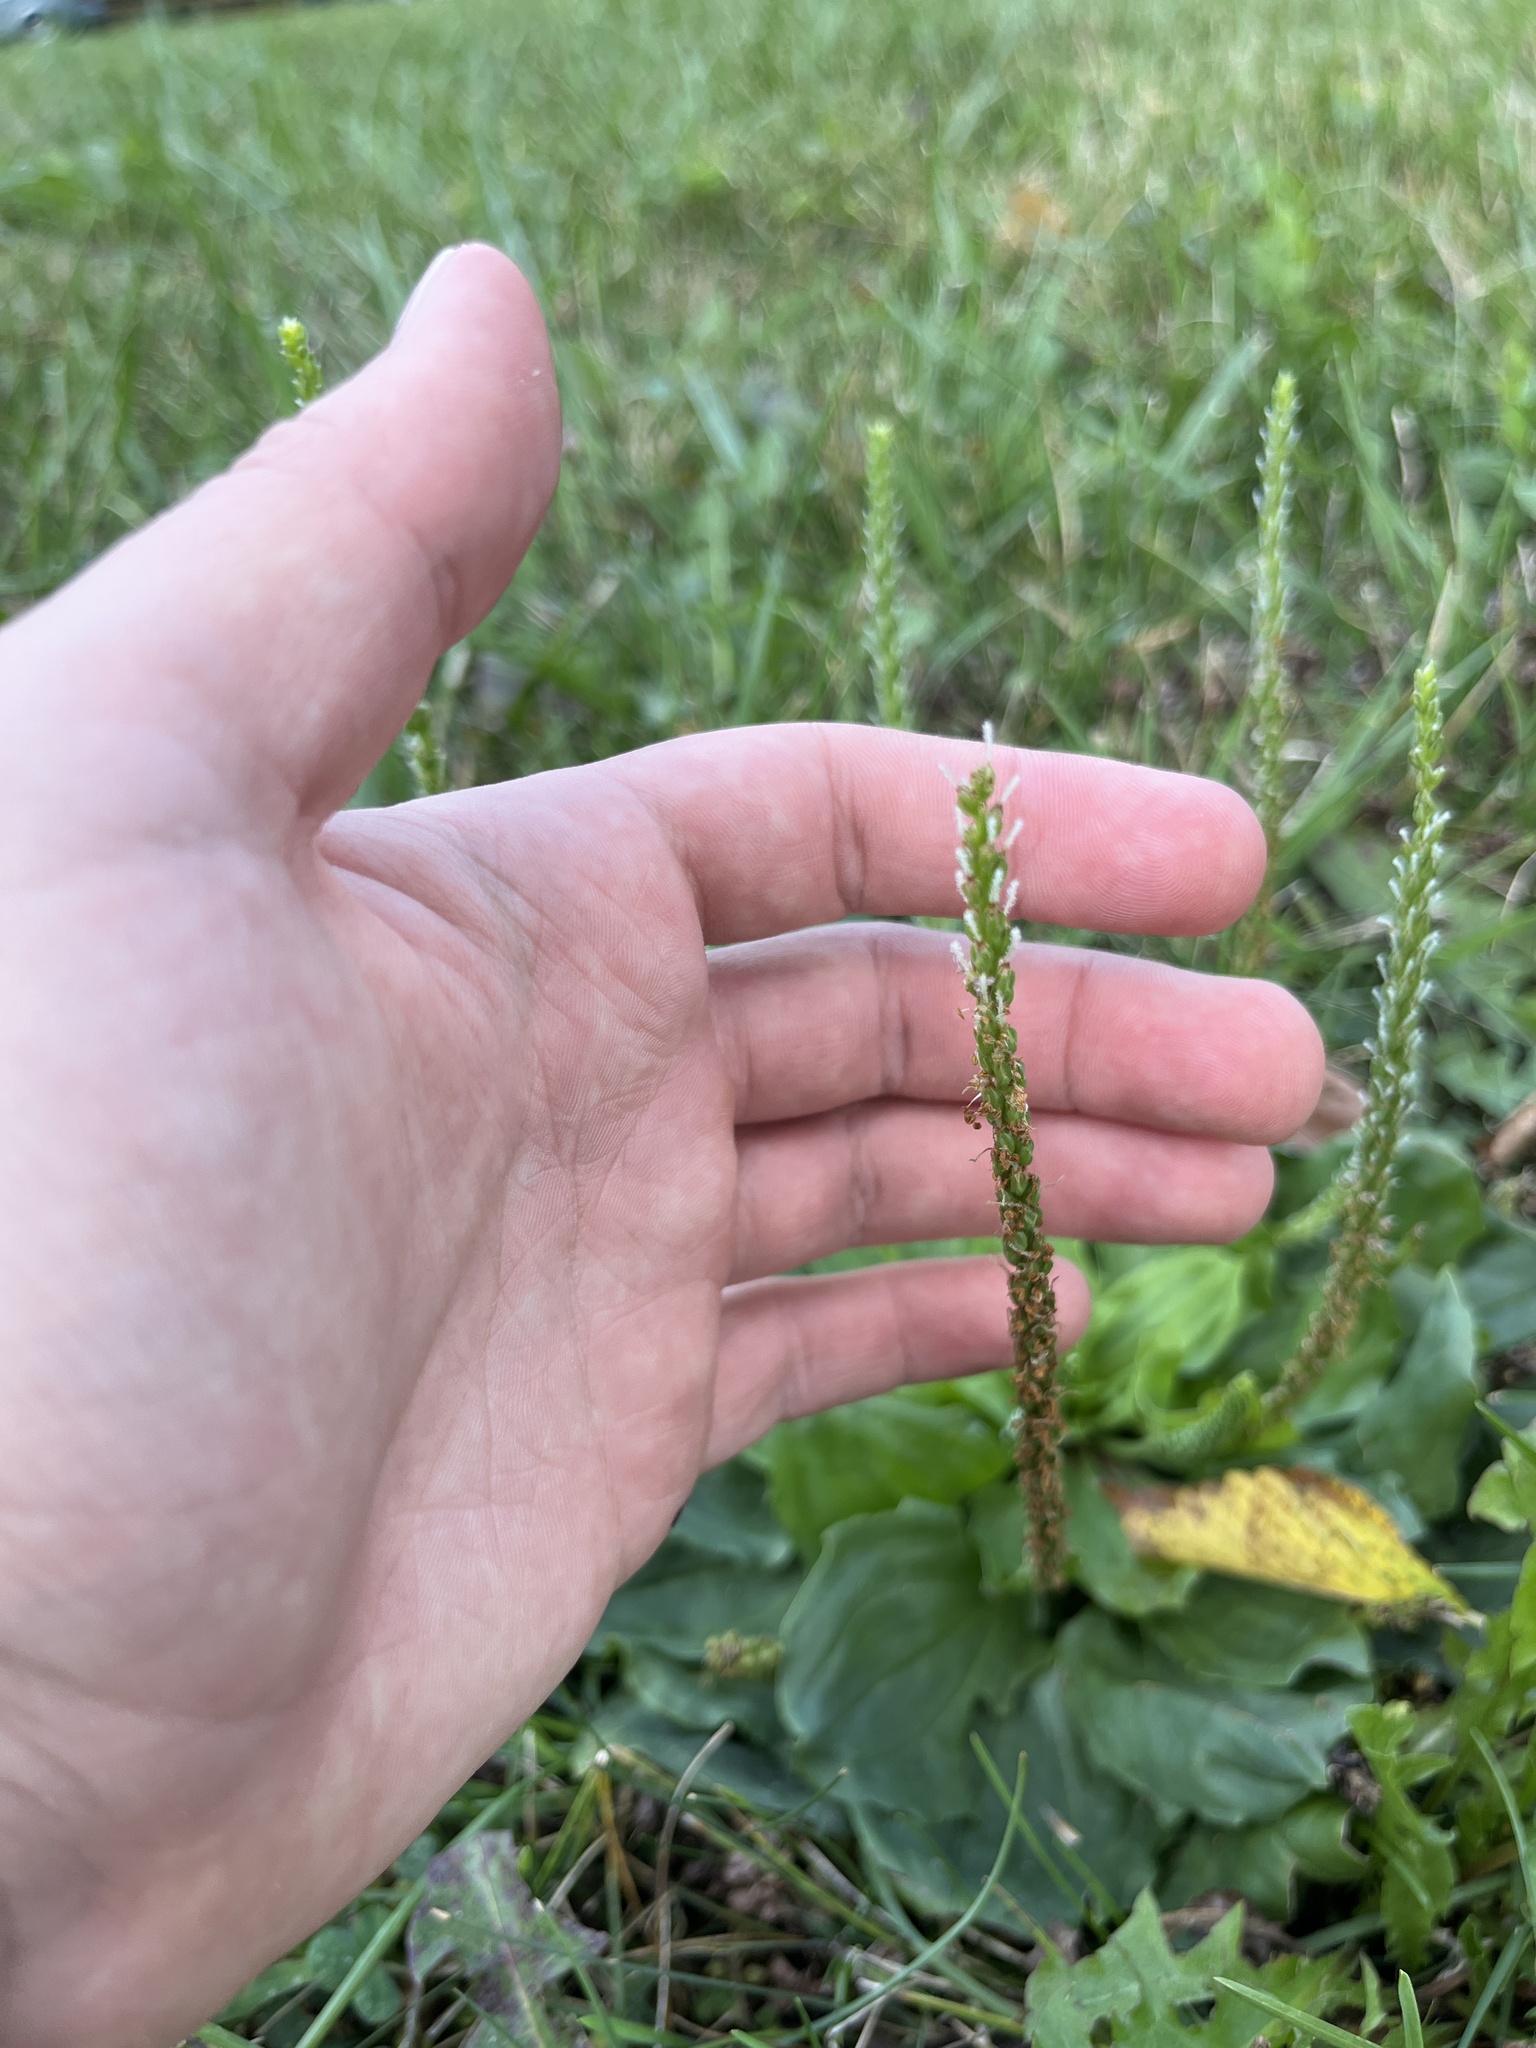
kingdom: Plantae
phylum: Tracheophyta
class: Magnoliopsida
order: Lamiales
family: Plantaginaceae
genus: Plantago
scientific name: Plantago rugelii
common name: American plantain
